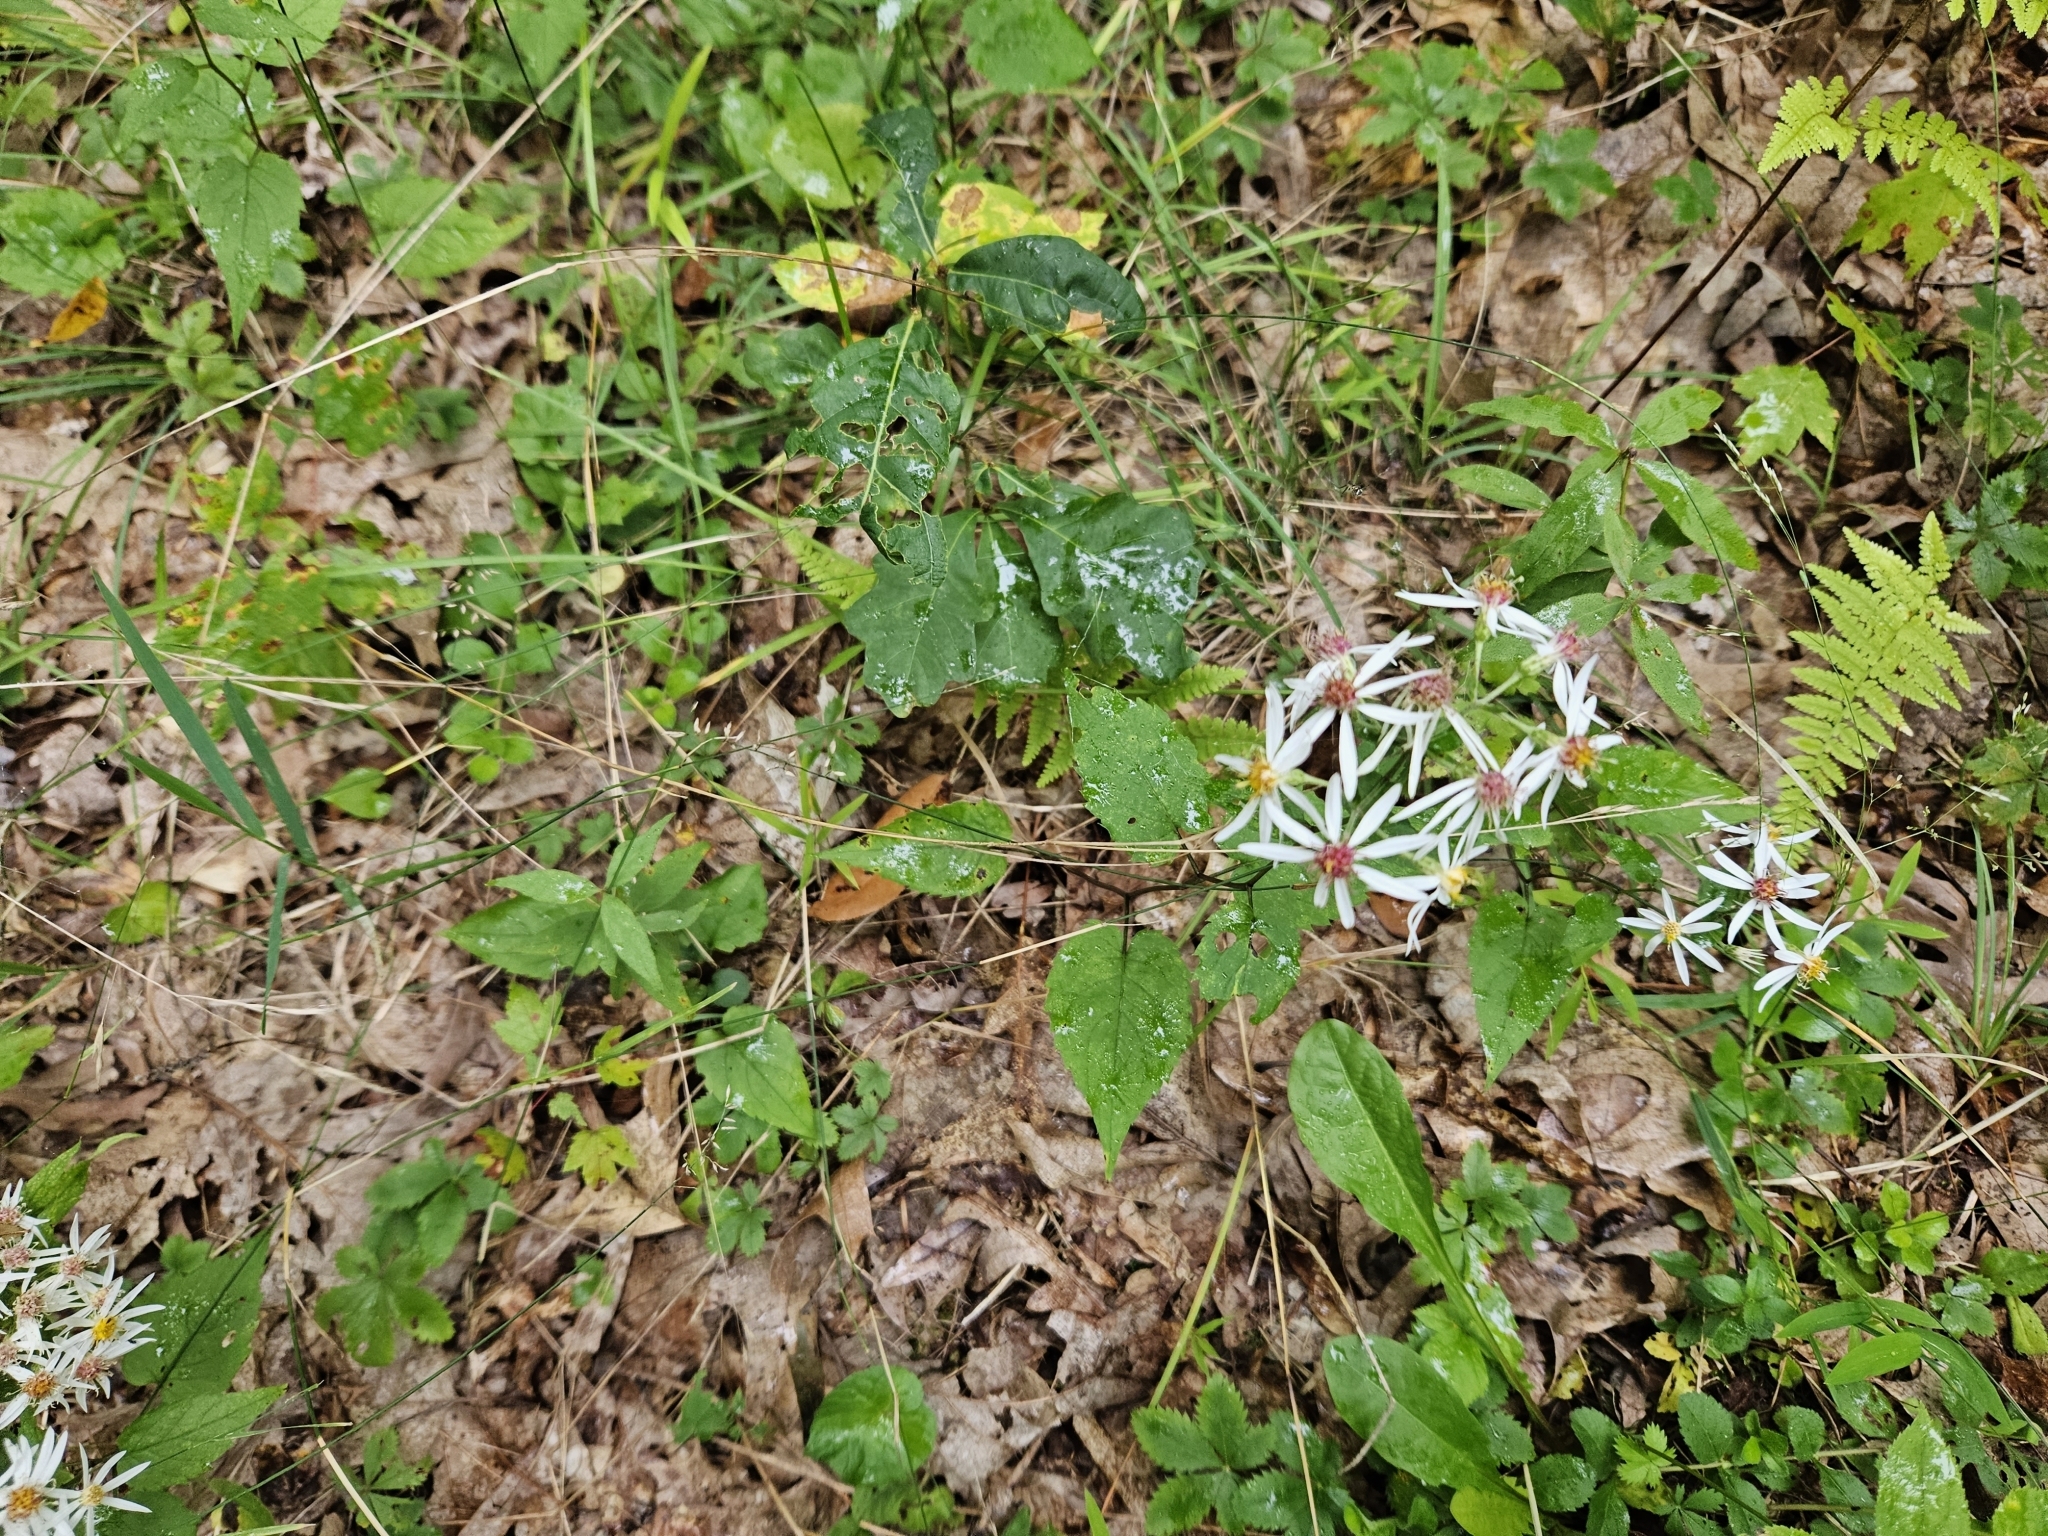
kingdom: Plantae
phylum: Tracheophyta
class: Magnoliopsida
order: Asterales
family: Asteraceae
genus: Eurybia
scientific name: Eurybia divaricata
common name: White wood aster
